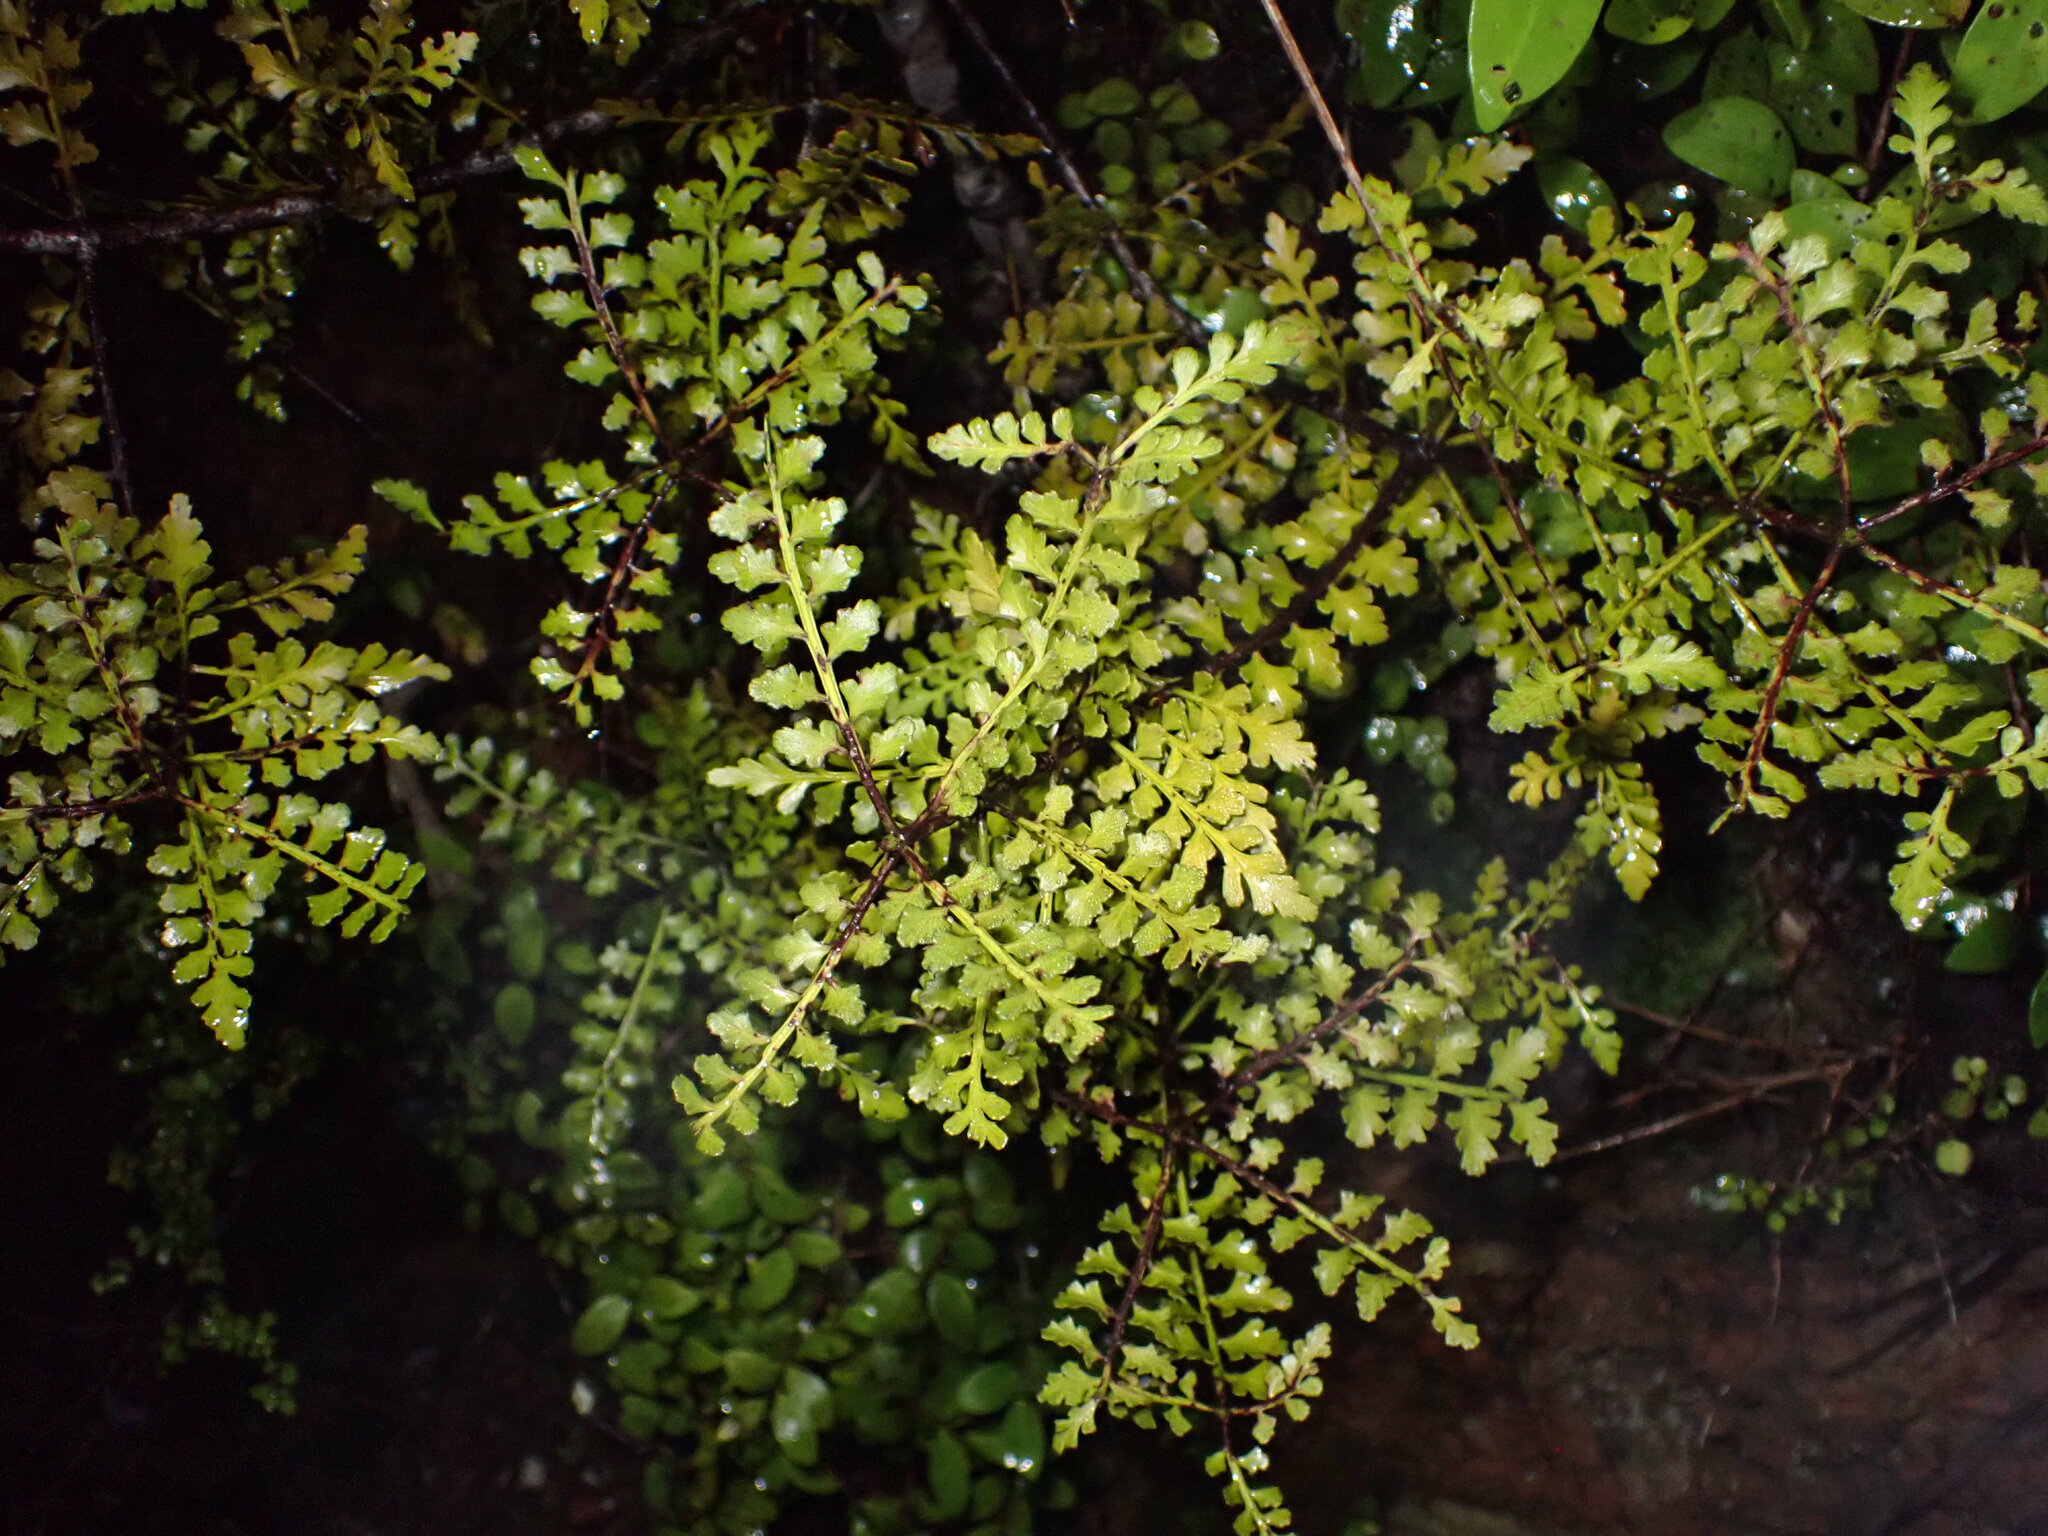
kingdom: Plantae
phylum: Tracheophyta
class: Pinopsida
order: Pinales
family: Phyllocladaceae
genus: Phyllocladus
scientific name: Phyllocladus trichomanoides
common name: Celery pine
